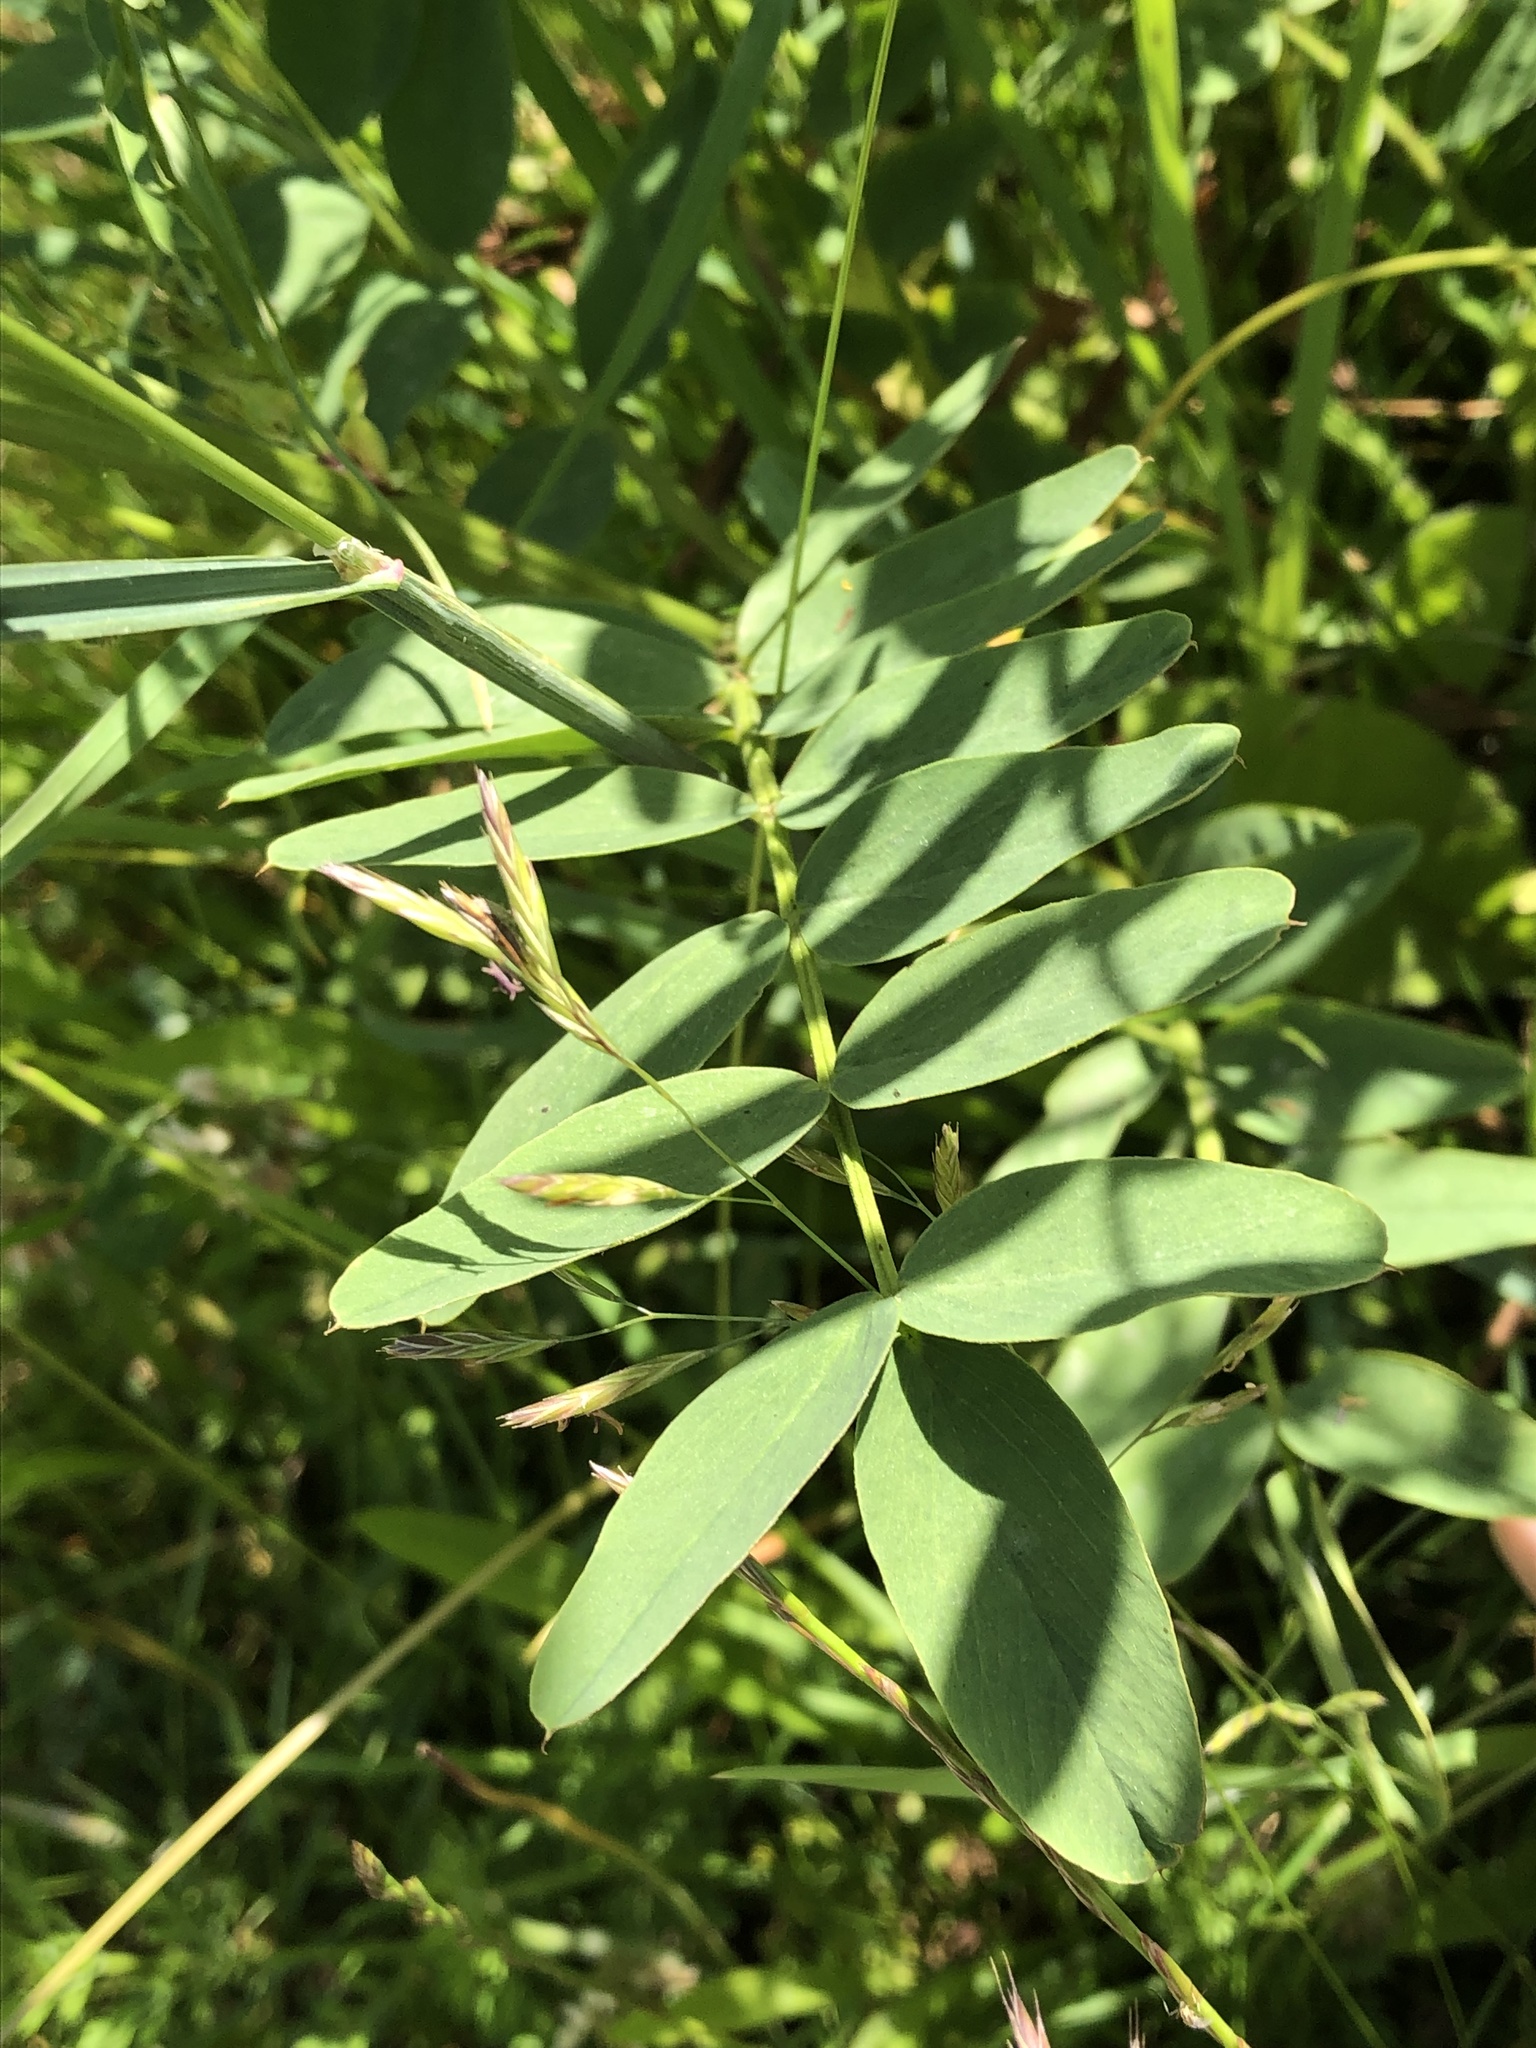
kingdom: Plantae
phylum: Tracheophyta
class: Magnoliopsida
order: Fabales
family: Fabaceae
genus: Galega
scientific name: Galega officinalis
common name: Goat's-rue
